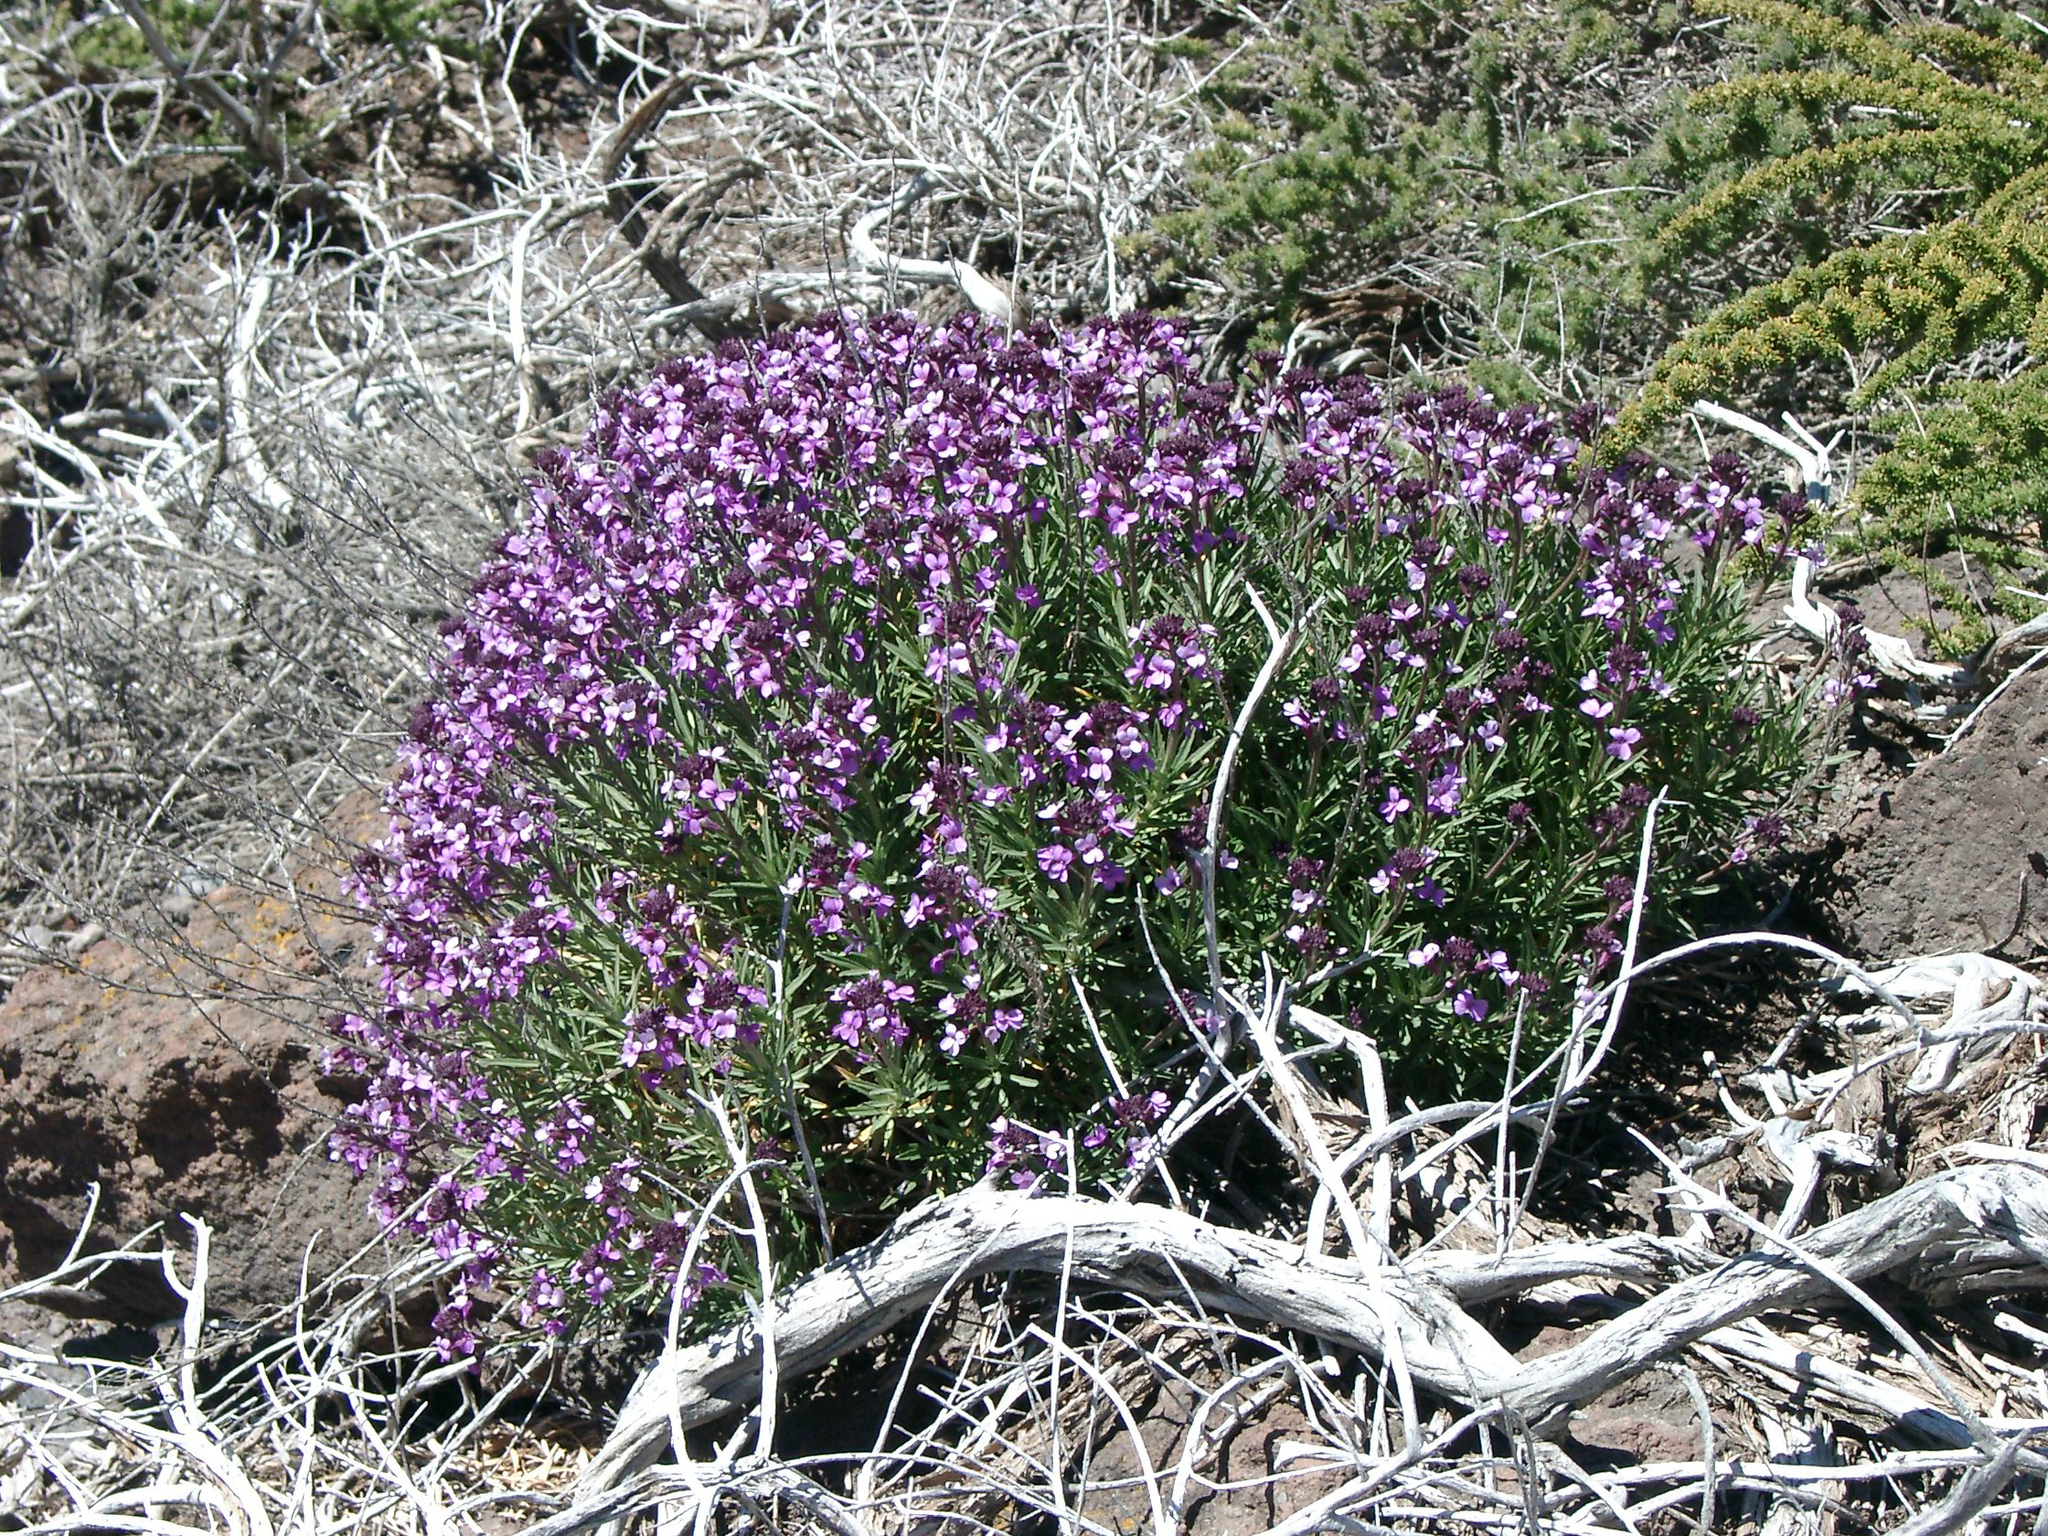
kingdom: Plantae
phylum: Tracheophyta
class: Magnoliopsida
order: Brassicales
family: Brassicaceae
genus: Erysimum
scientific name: Erysimum scoparium
